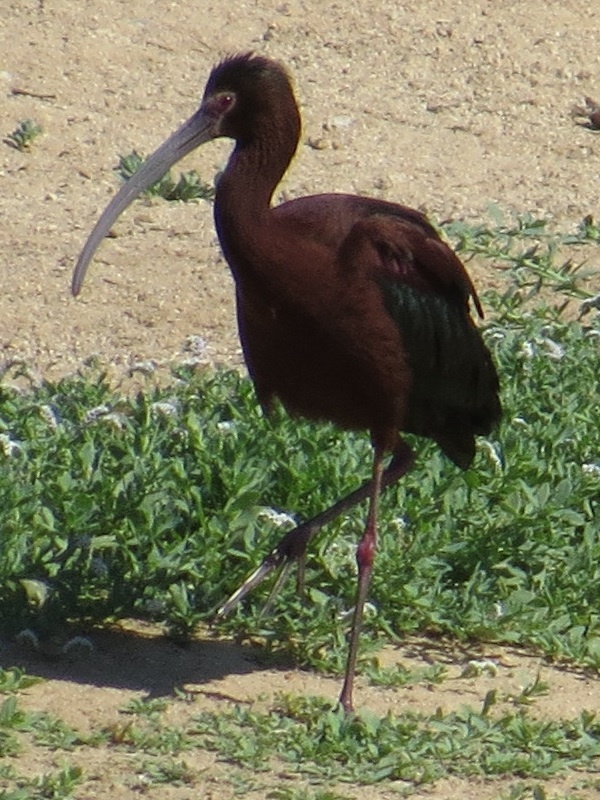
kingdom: Animalia
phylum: Chordata
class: Aves
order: Pelecaniformes
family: Threskiornithidae
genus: Plegadis
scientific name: Plegadis chihi
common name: White-faced ibis
